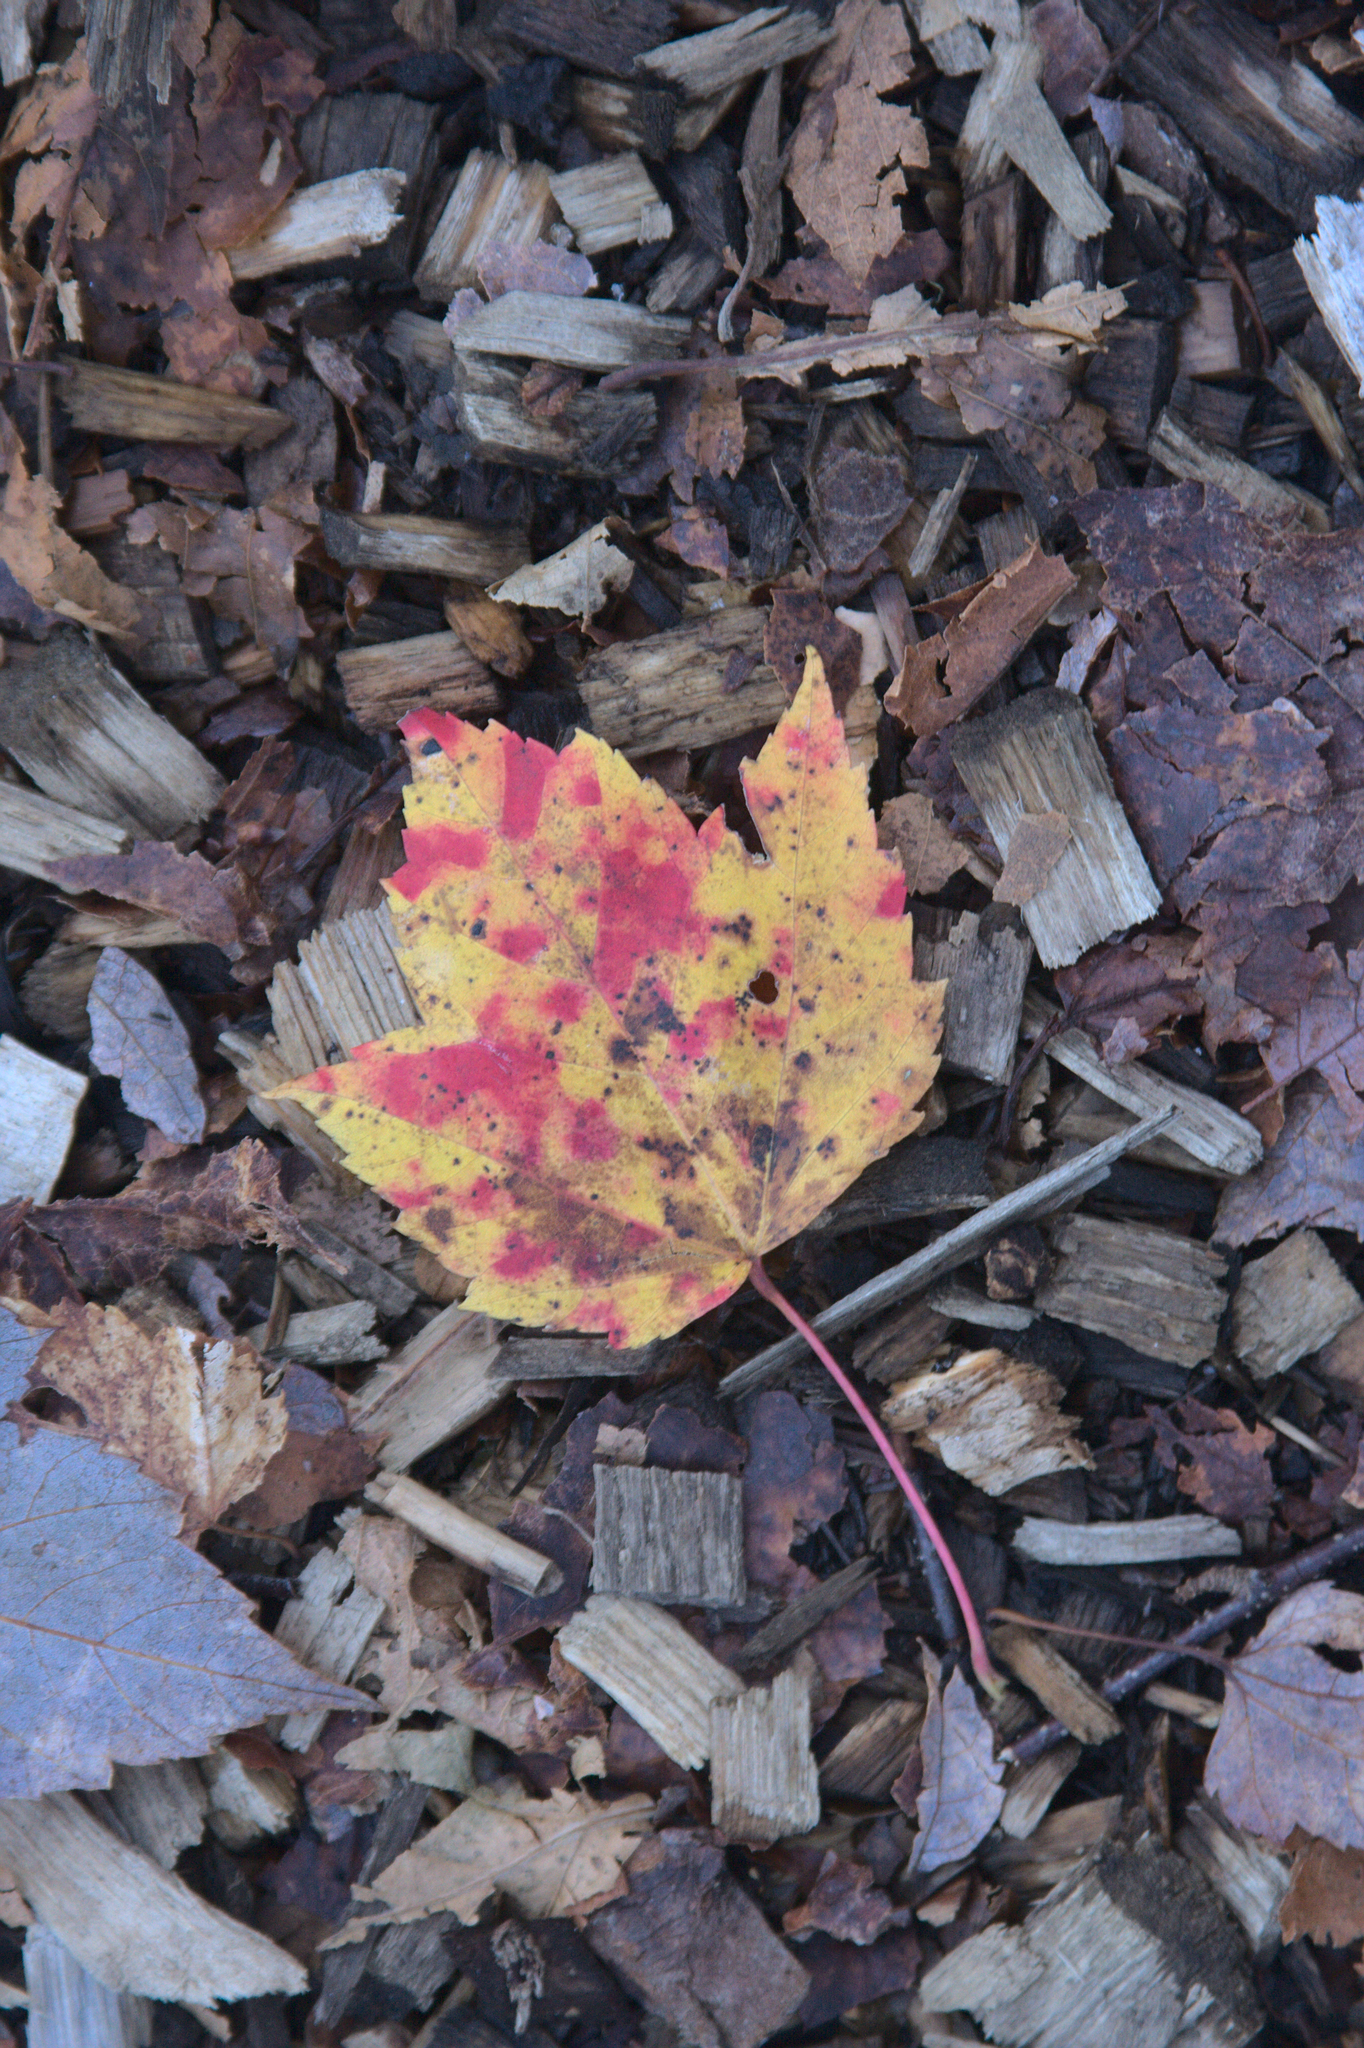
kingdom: Plantae
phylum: Tracheophyta
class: Magnoliopsida
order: Sapindales
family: Sapindaceae
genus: Acer
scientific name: Acer rubrum
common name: Red maple
